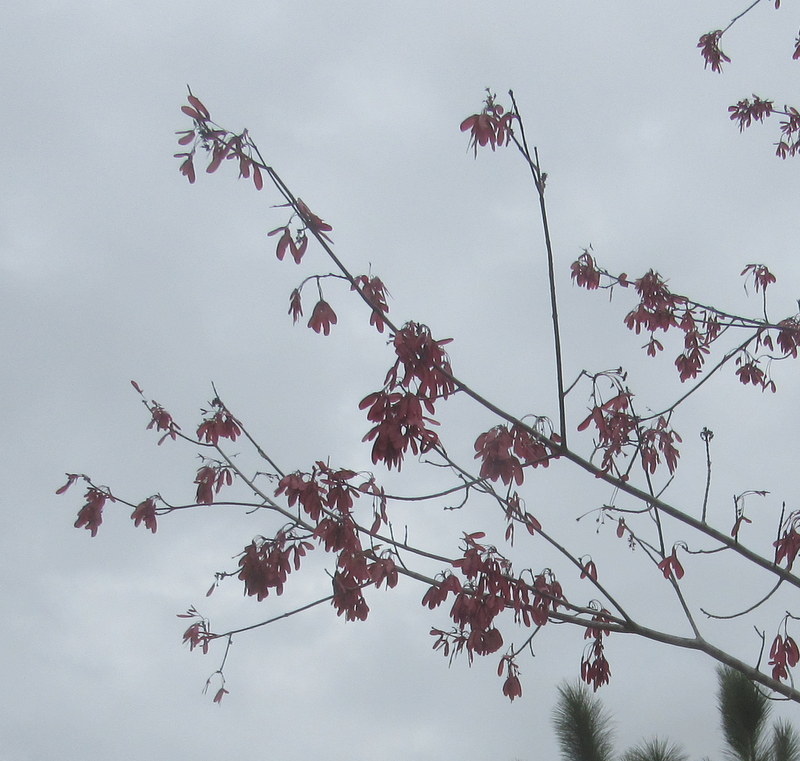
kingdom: Plantae
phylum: Tracheophyta
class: Magnoliopsida
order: Sapindales
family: Sapindaceae
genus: Acer
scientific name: Acer rubrum
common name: Red maple
